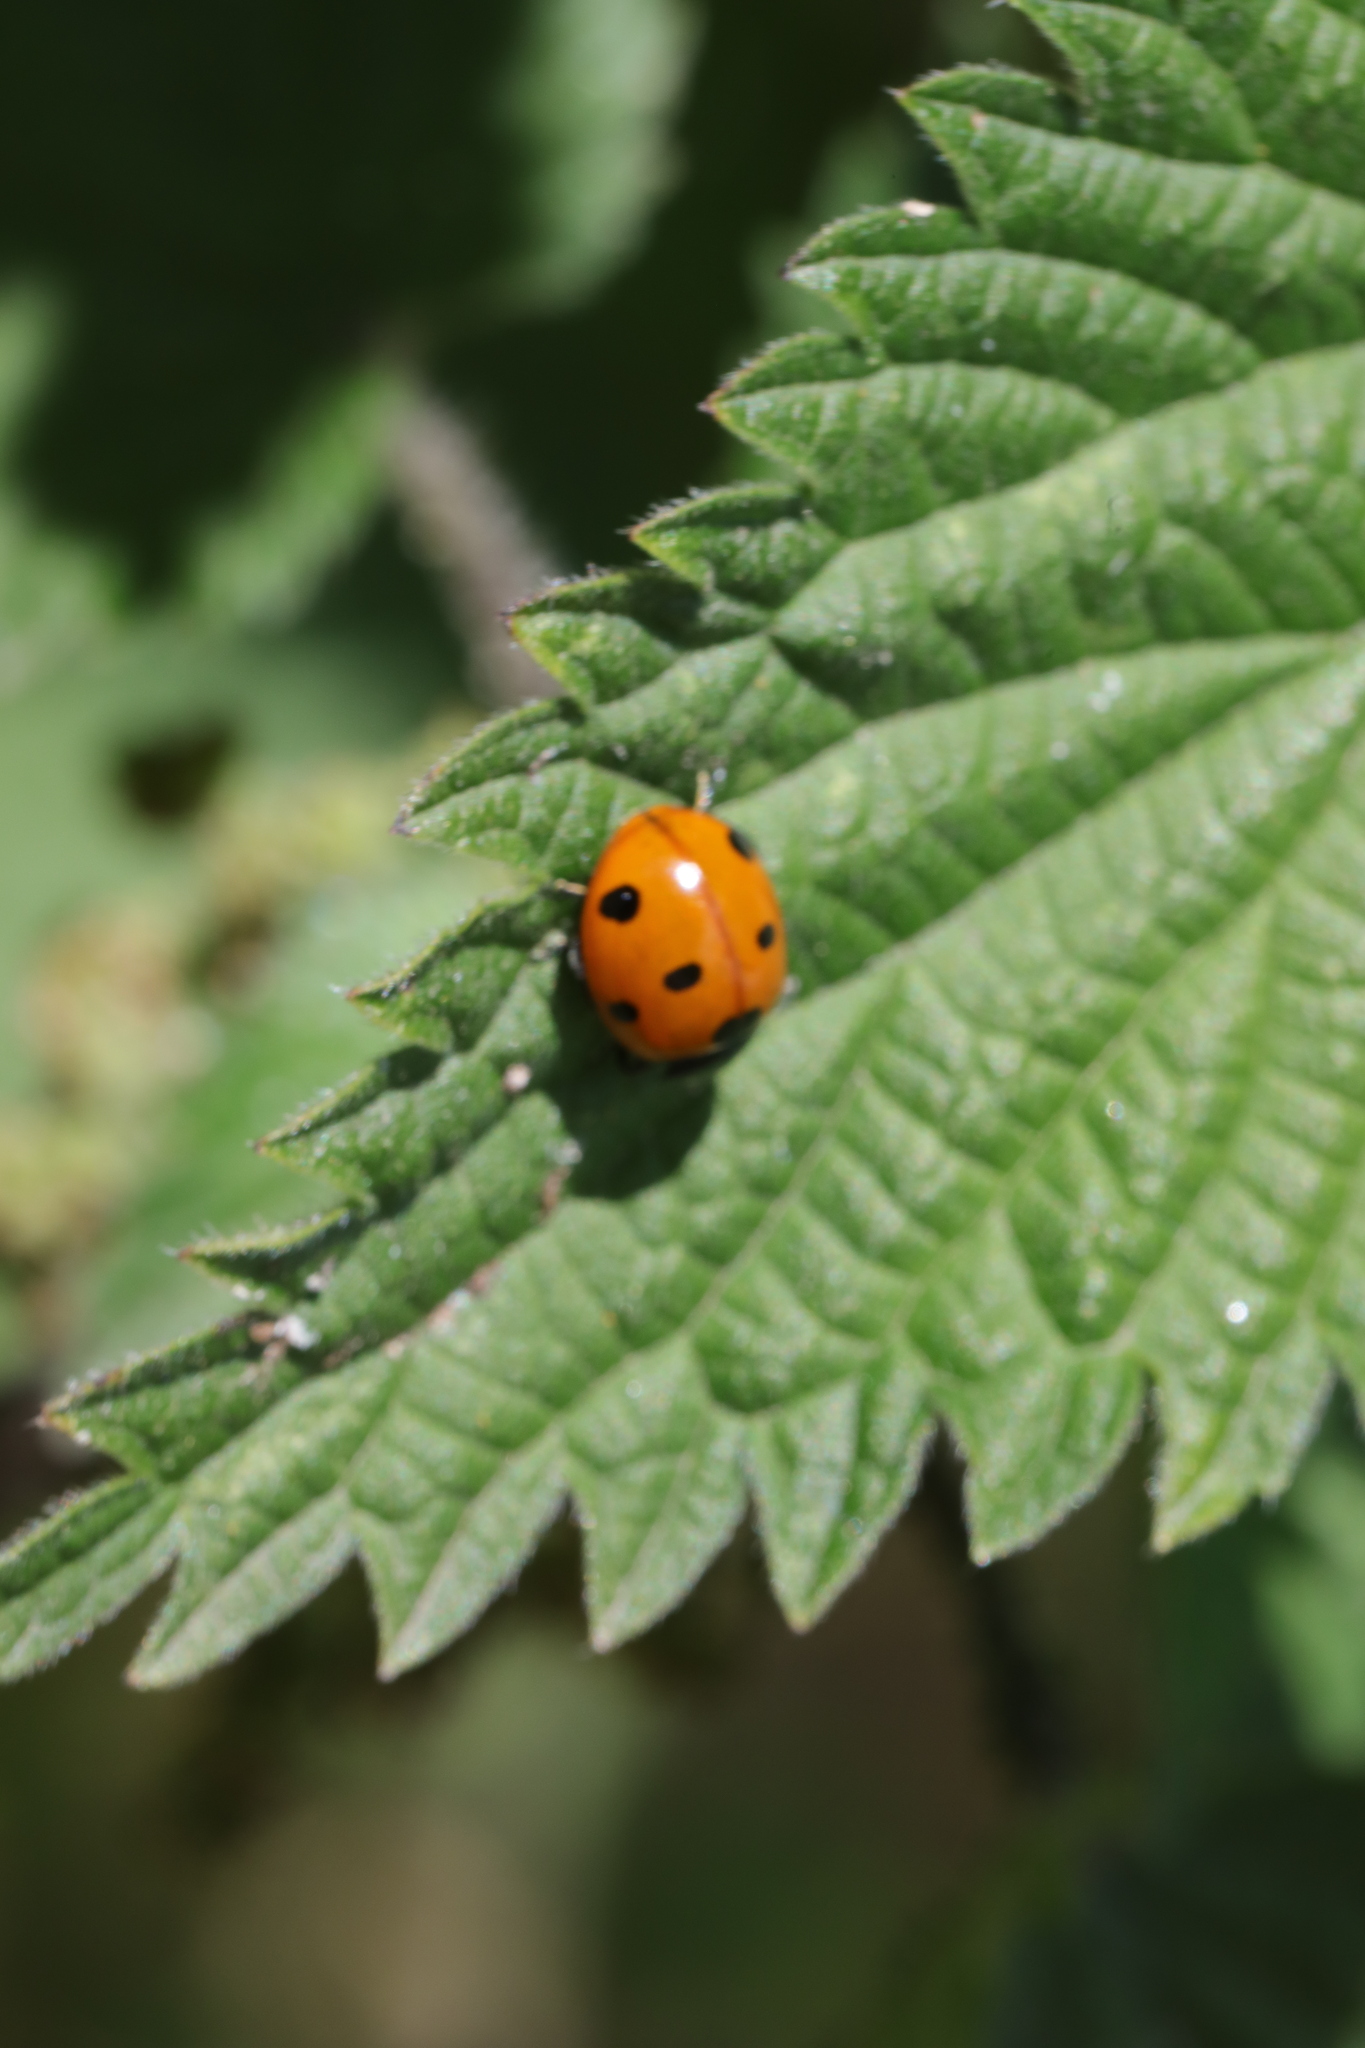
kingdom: Animalia
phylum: Arthropoda
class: Insecta
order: Coleoptera
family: Coccinellidae
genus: Coccinella
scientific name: Coccinella septempunctata
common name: Sevenspotted lady beetle
